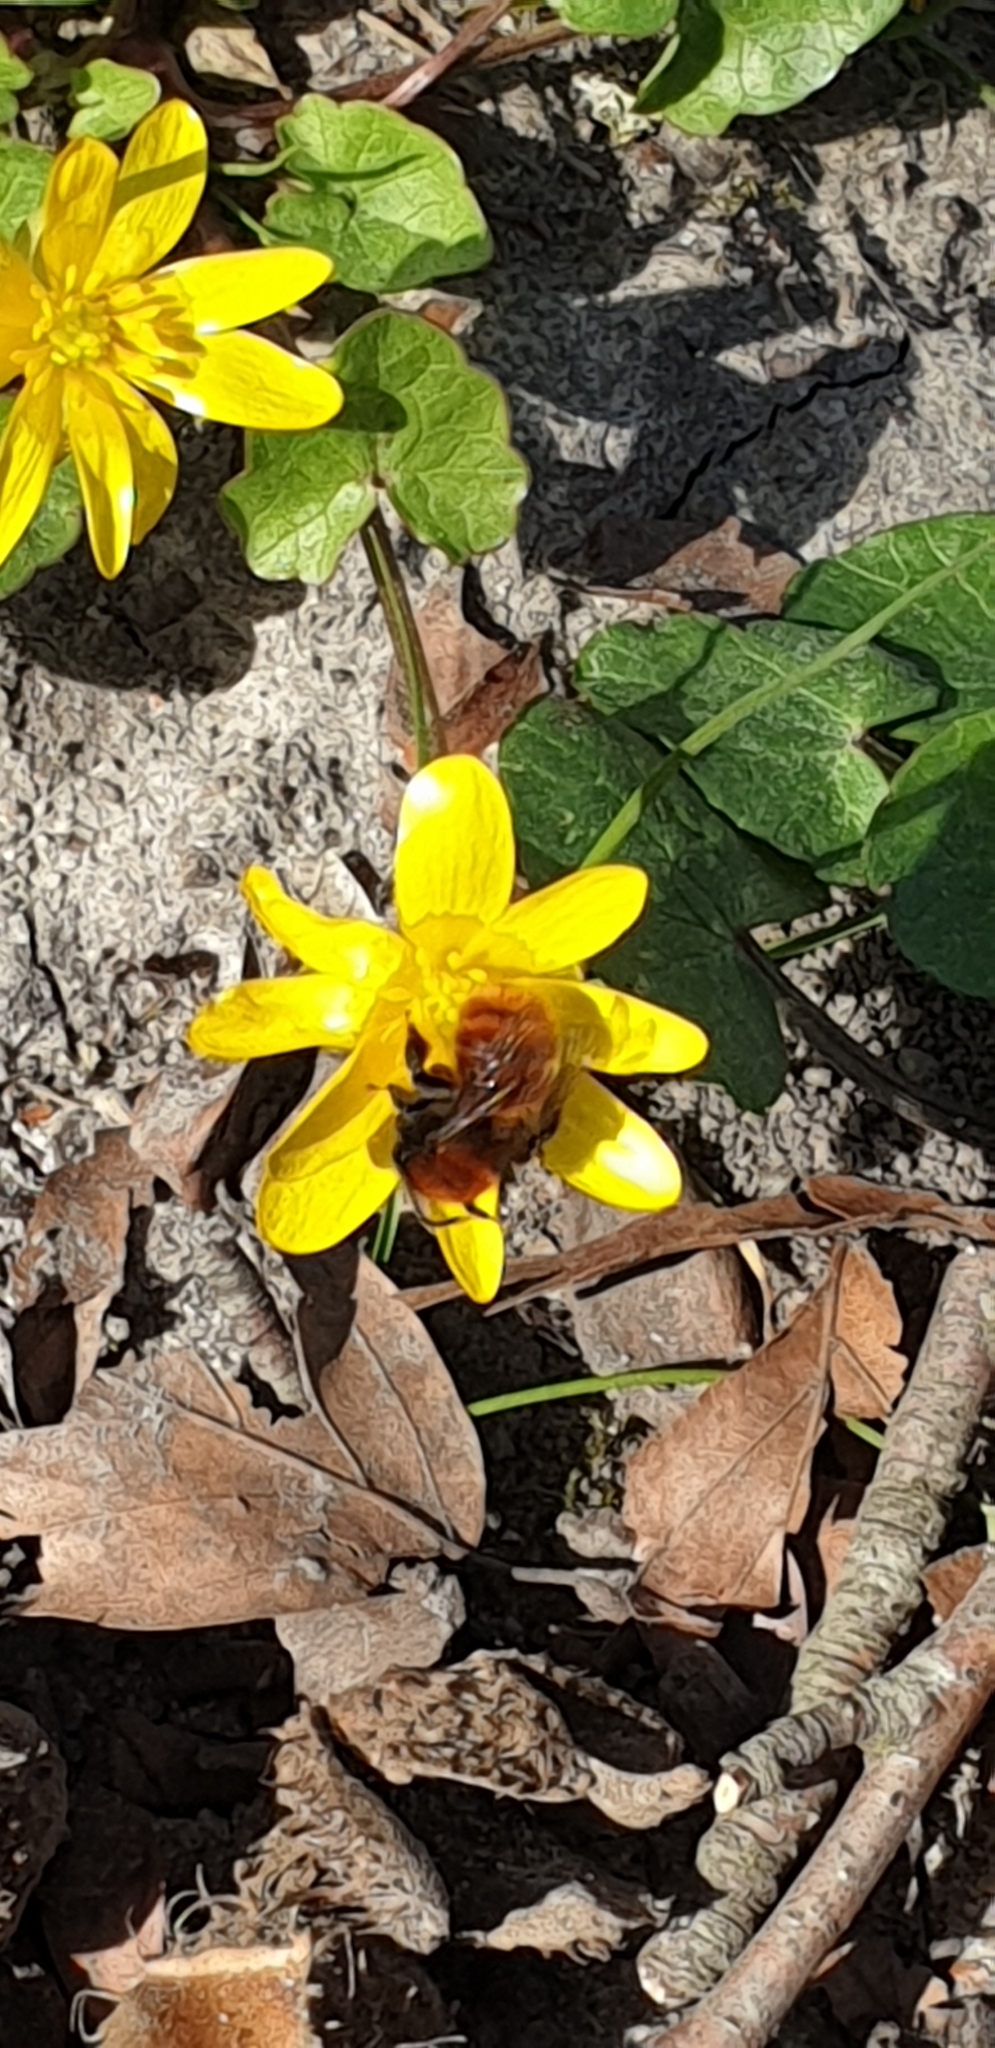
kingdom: Animalia
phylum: Arthropoda
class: Insecta
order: Hymenoptera
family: Andrenidae
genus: Andrena
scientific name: Andrena fulva
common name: Tawny mining bee
